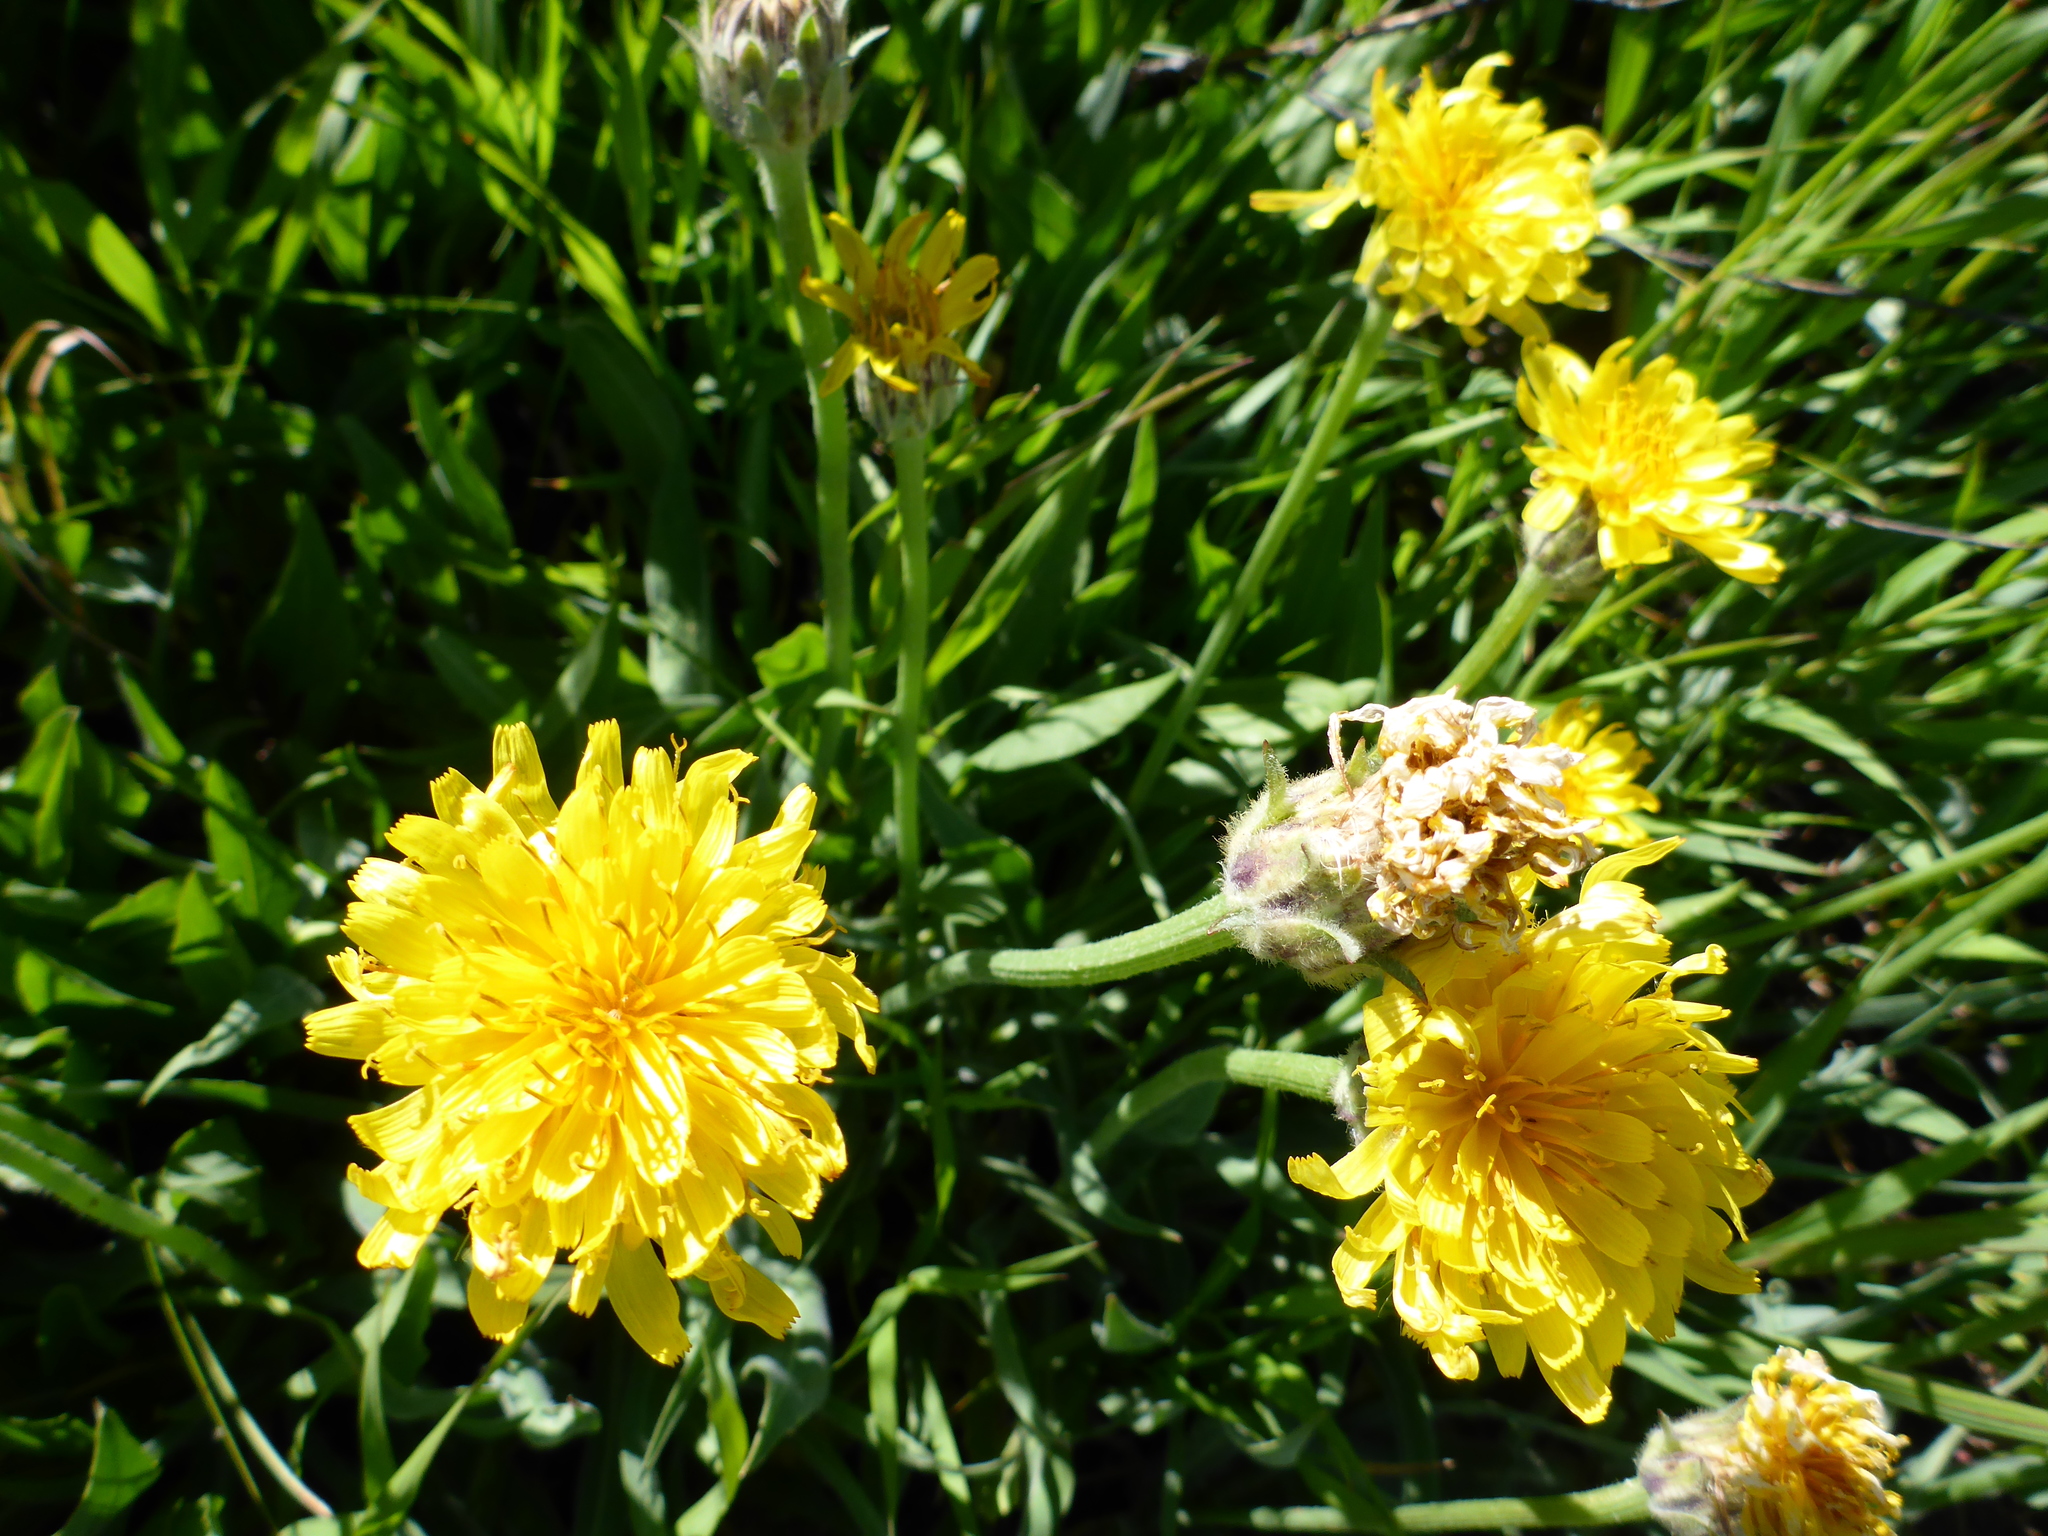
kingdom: Plantae
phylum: Tracheophyta
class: Magnoliopsida
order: Asterales
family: Asteraceae
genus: Agoseris
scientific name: Agoseris glauca
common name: Prairie agoseris
